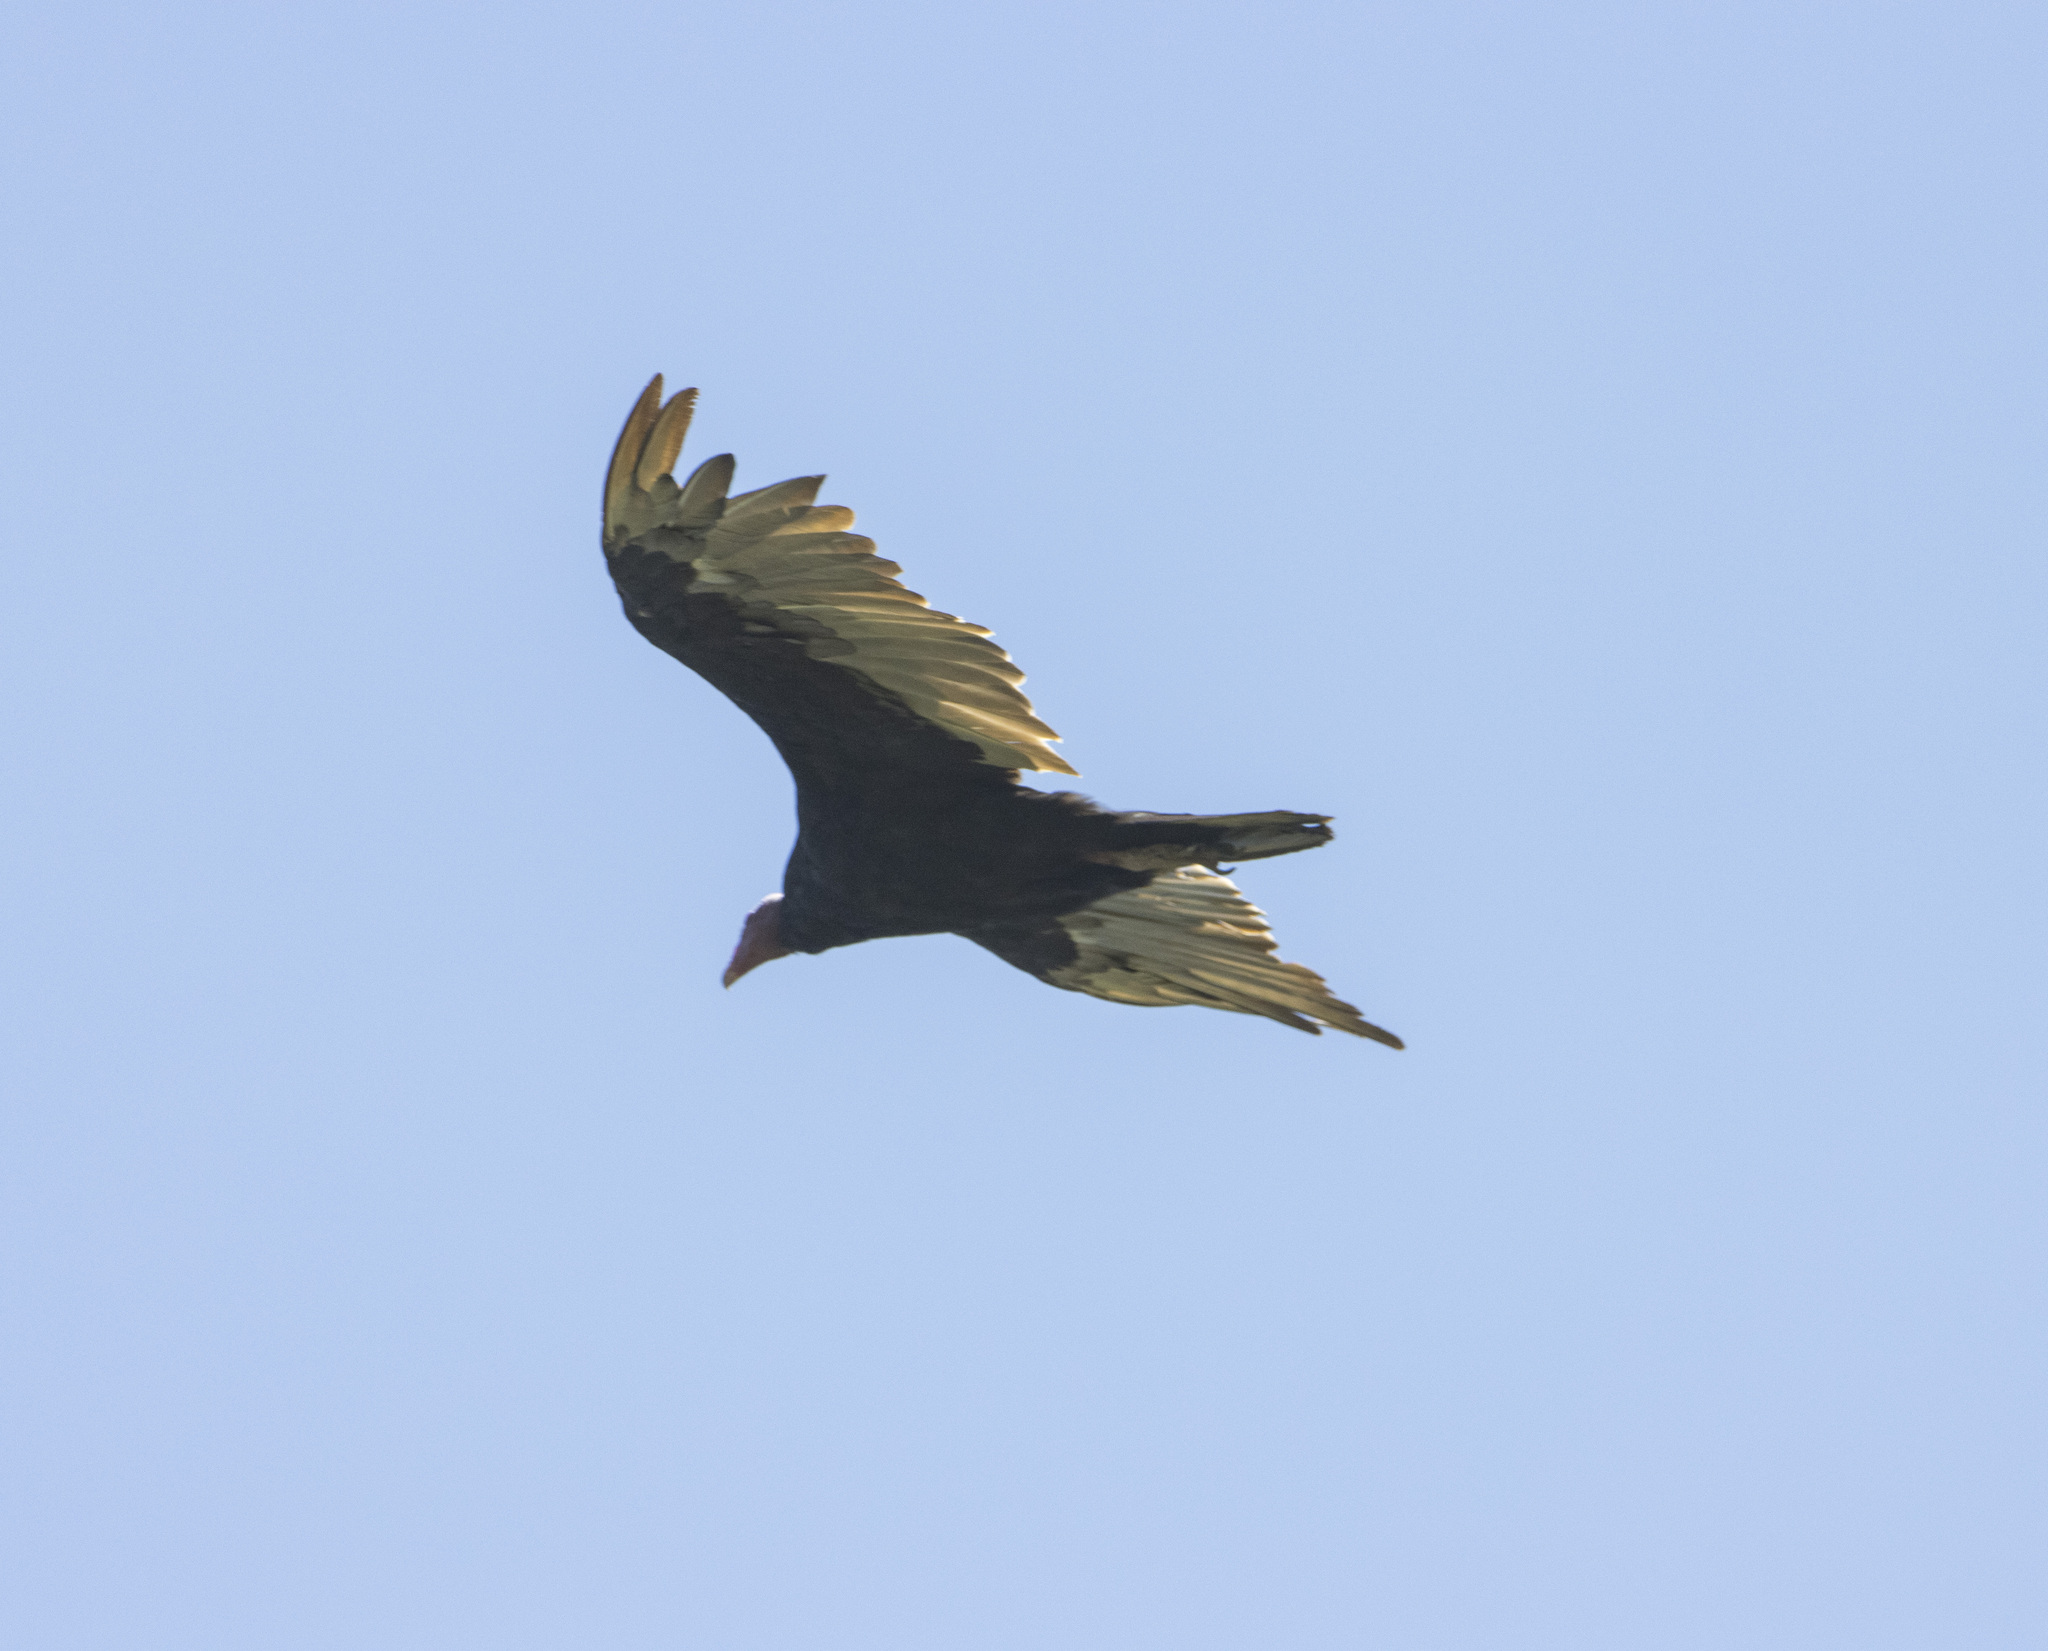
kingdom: Animalia
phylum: Chordata
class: Aves
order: Accipitriformes
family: Cathartidae
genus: Cathartes
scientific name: Cathartes aura
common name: Turkey vulture
